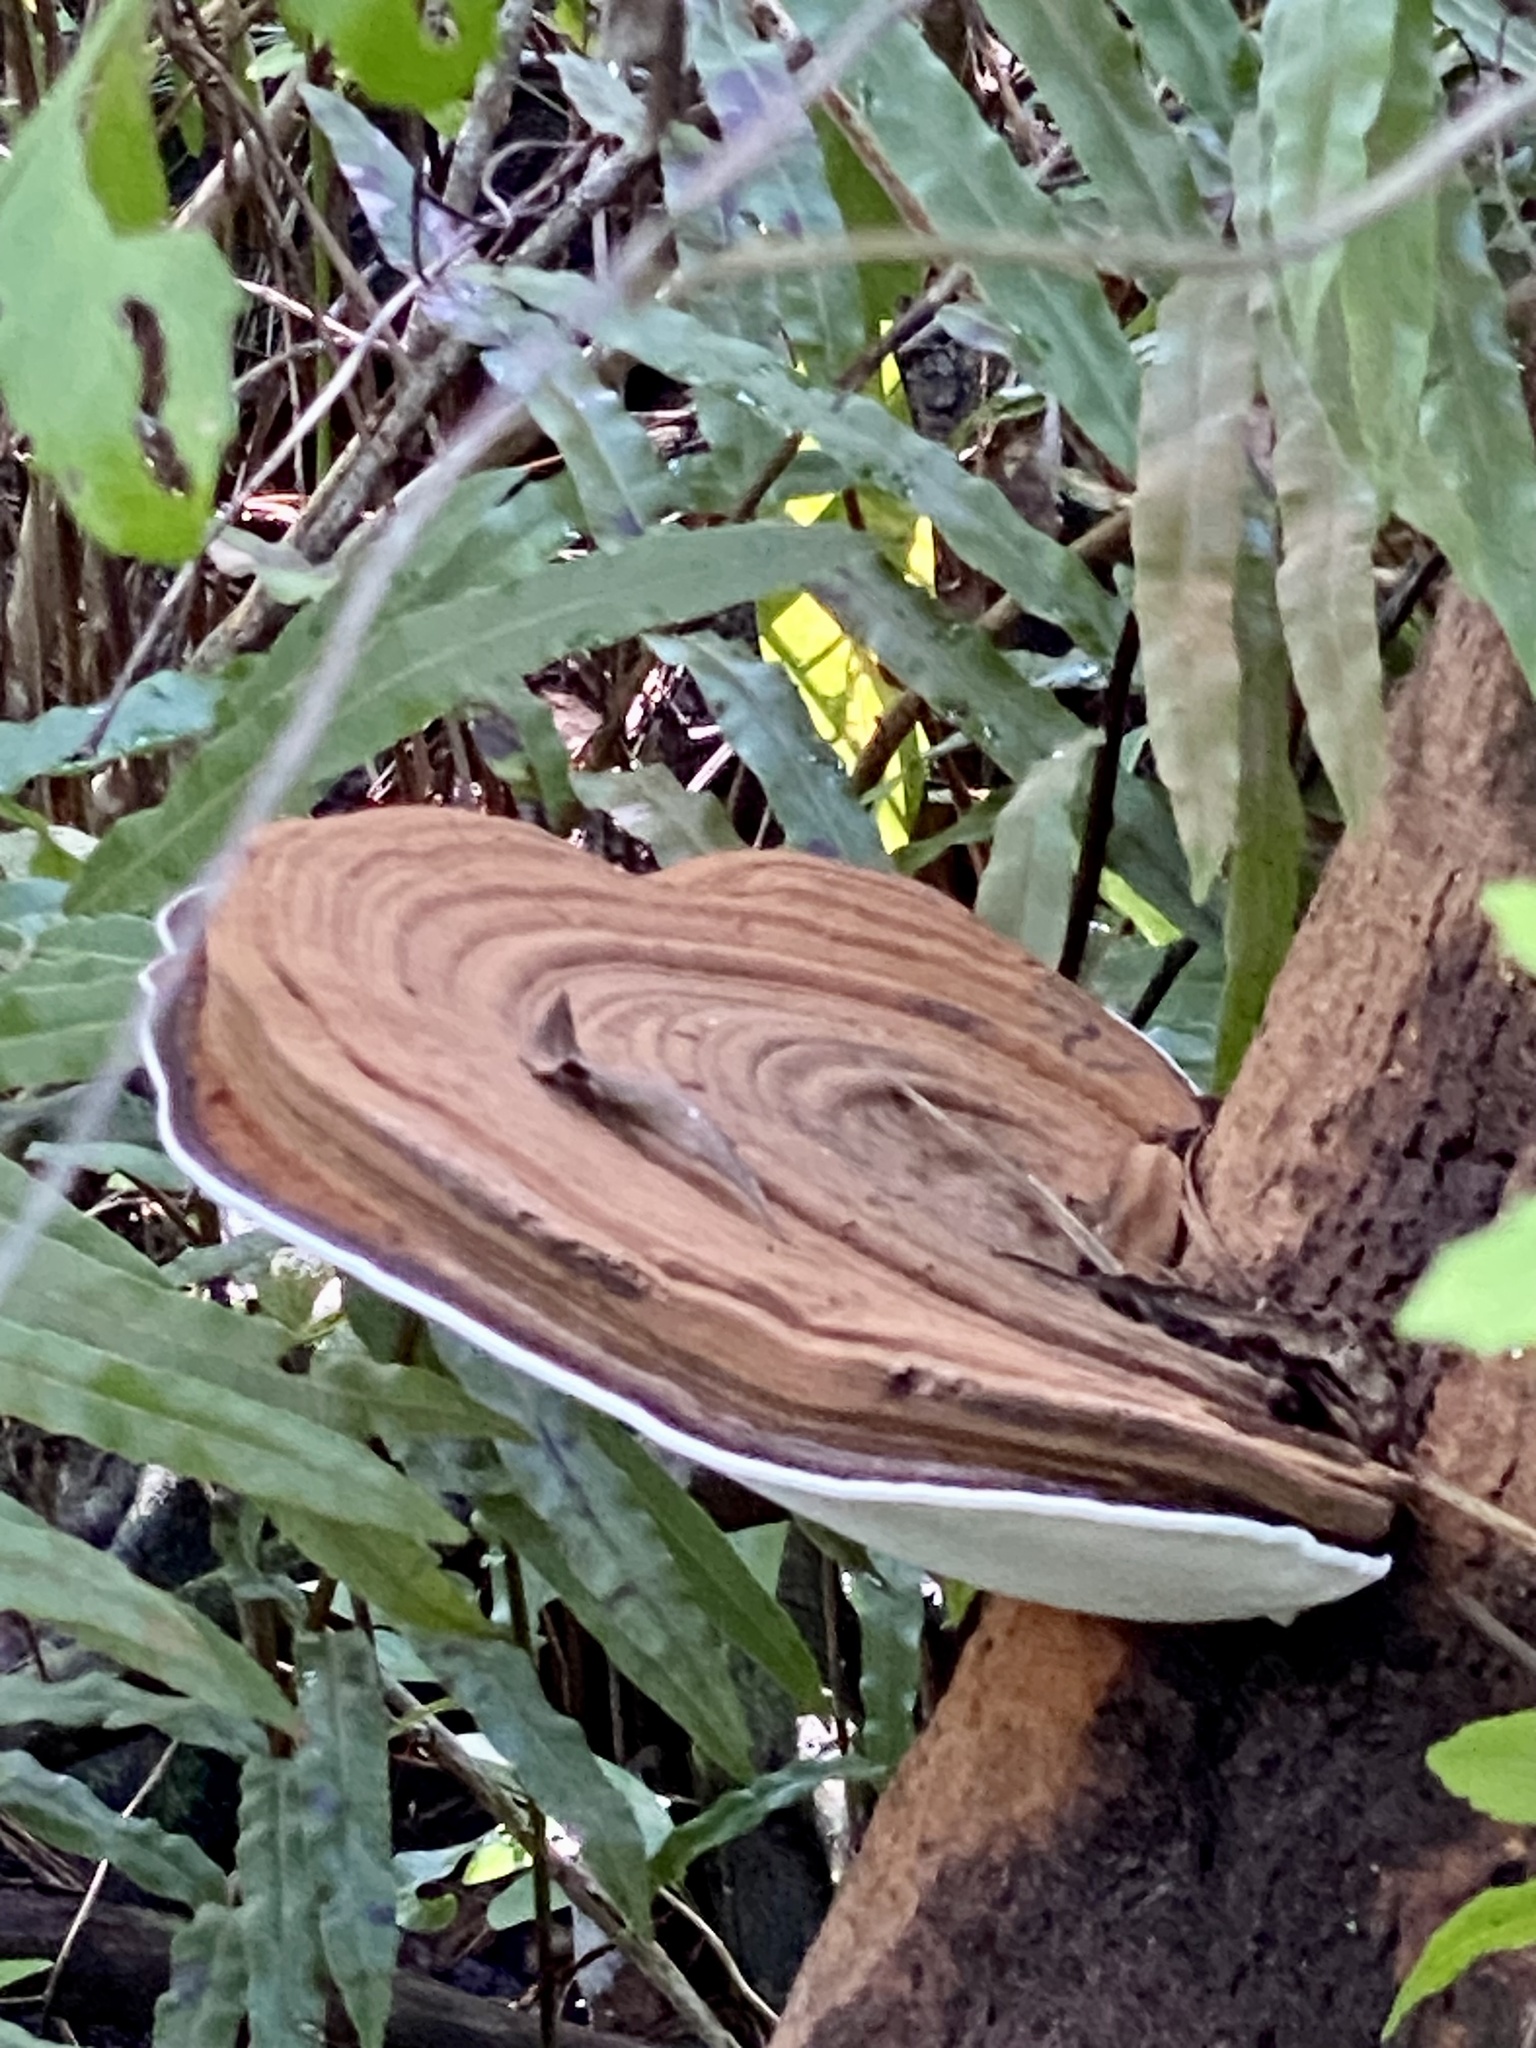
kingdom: Fungi
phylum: Basidiomycota
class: Agaricomycetes
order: Polyporales
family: Polyporaceae
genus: Ganoderma
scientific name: Ganoderma zonatum
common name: Ganoderma butt rot
